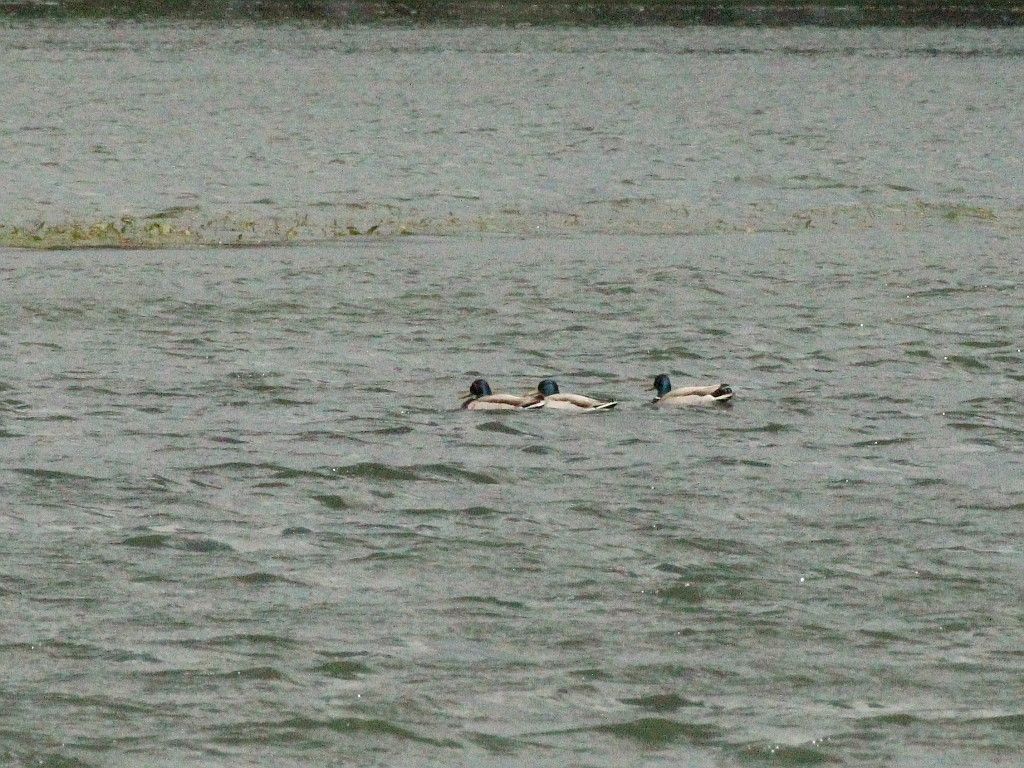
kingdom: Animalia
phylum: Chordata
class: Aves
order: Anseriformes
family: Anatidae
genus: Anas
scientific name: Anas platyrhynchos
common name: Mallard
